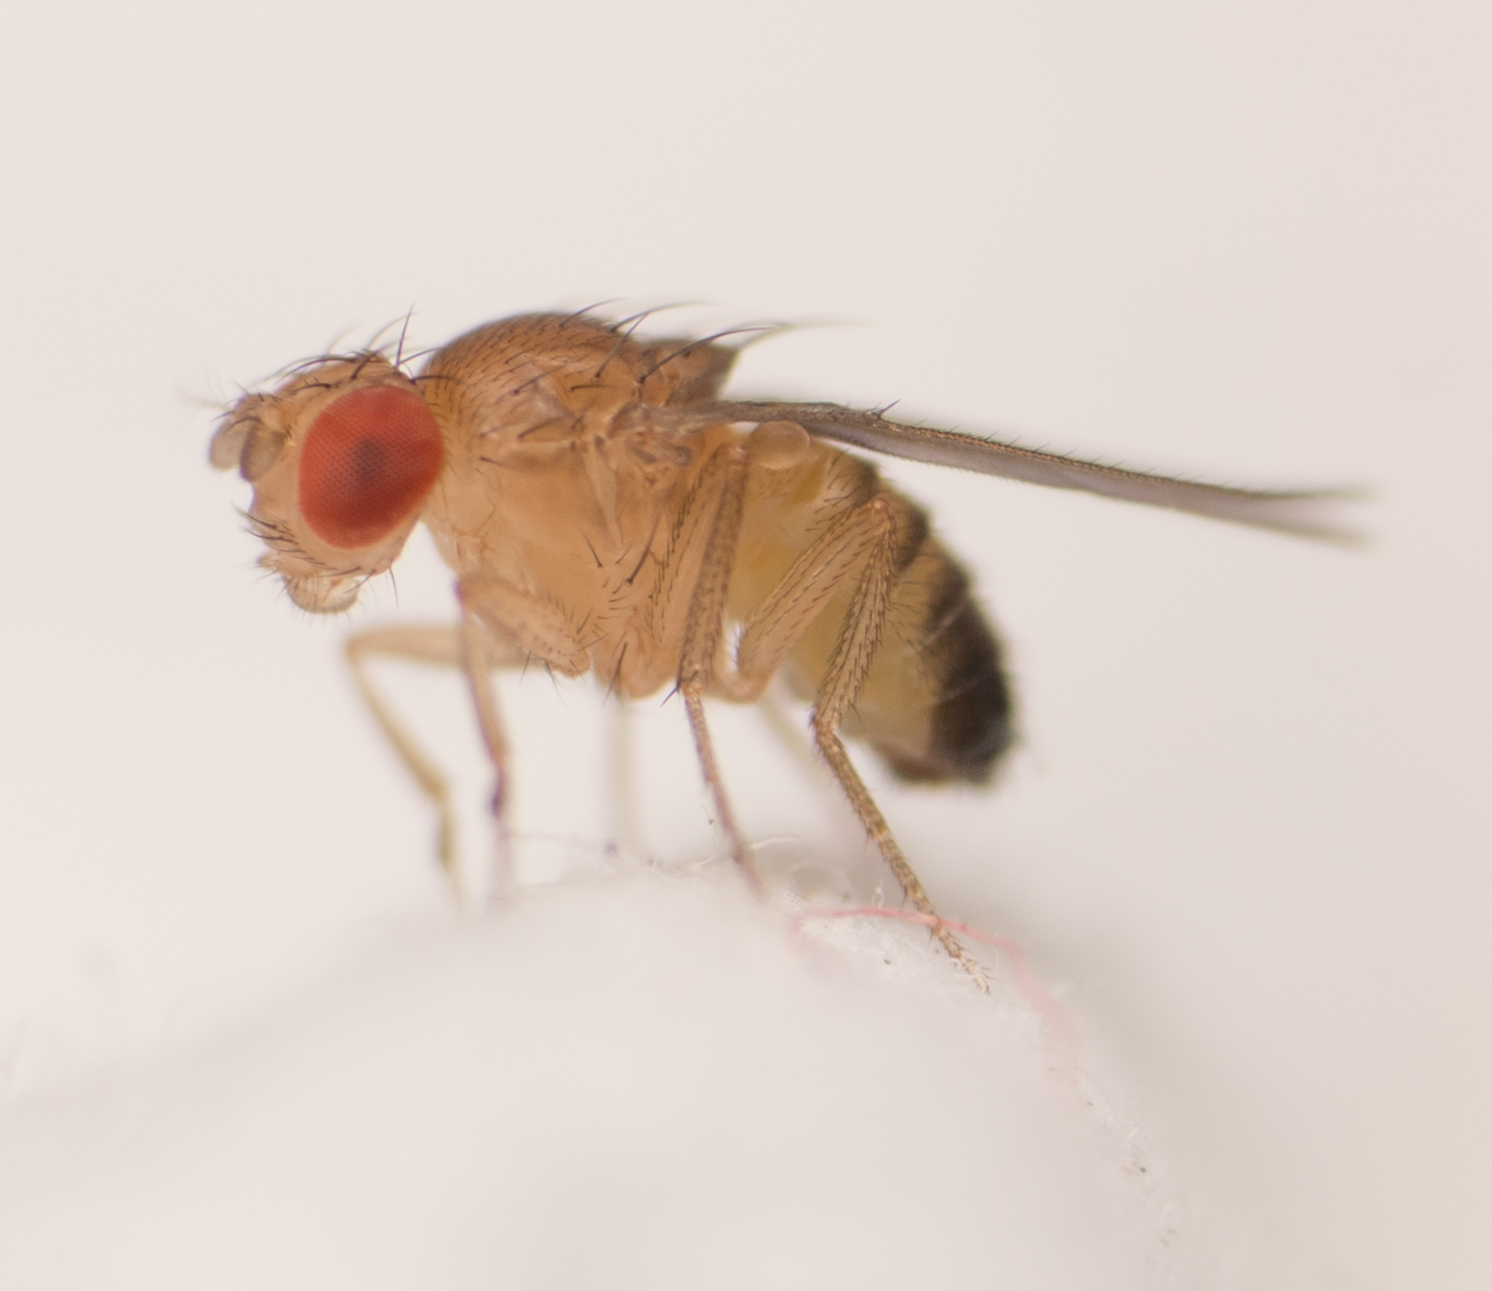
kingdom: Animalia
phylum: Arthropoda
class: Insecta
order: Diptera
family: Drosophilidae
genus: Drosophila
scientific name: Drosophila melanogaster
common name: Pomace fly
